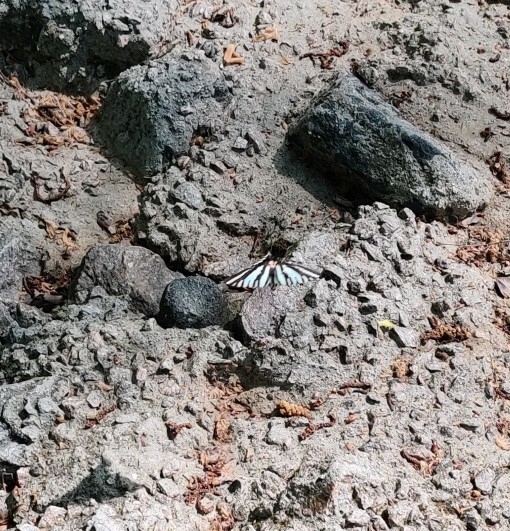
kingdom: Animalia
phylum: Arthropoda
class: Insecta
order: Lepidoptera
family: Papilionidae
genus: Protographium
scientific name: Protographium marcellus
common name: Zebra swallowtail
